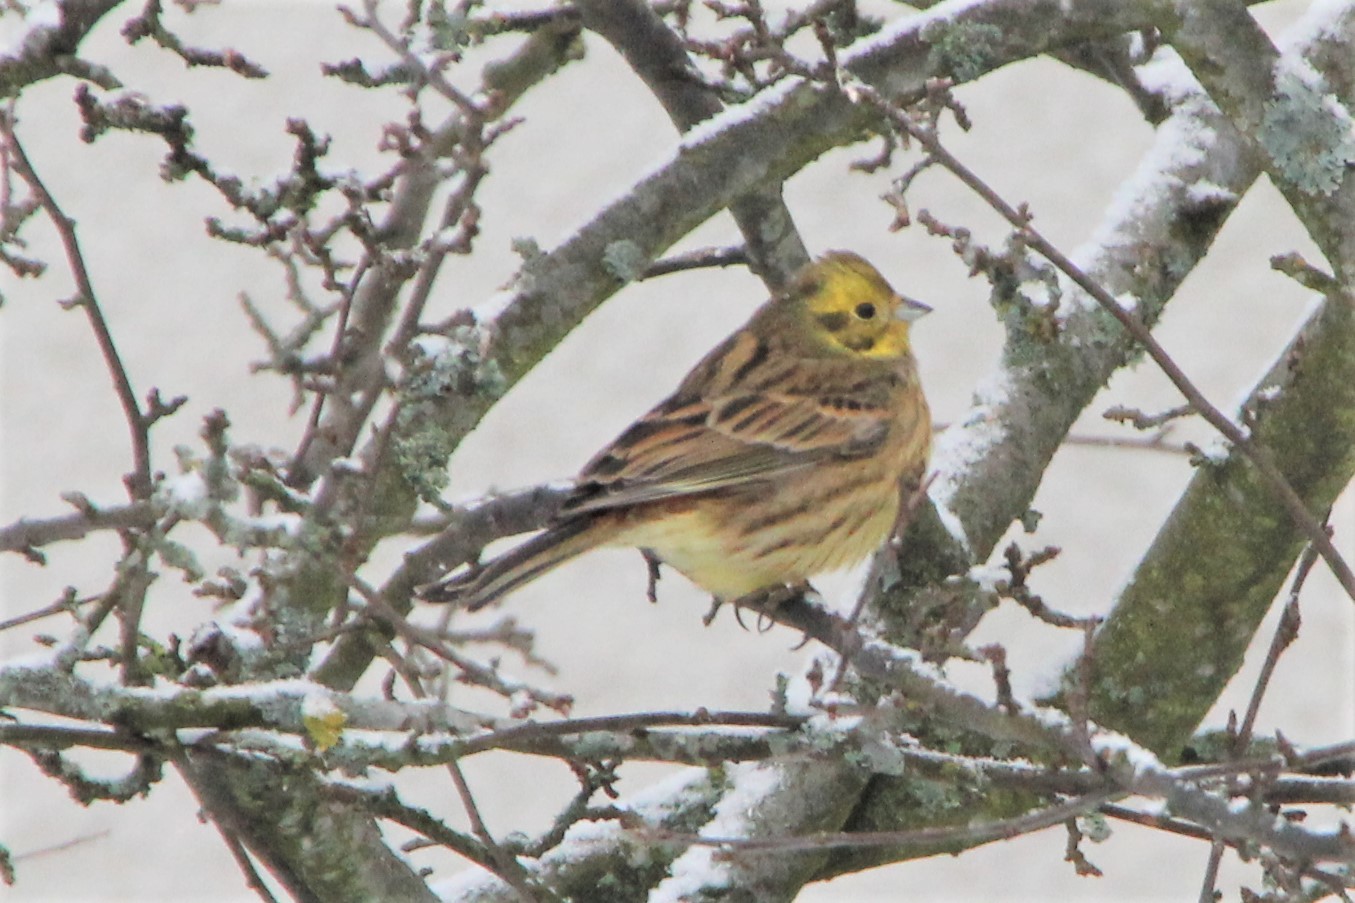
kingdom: Animalia
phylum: Chordata
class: Aves
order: Passeriformes
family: Emberizidae
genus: Emberiza
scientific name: Emberiza citrinella
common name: Yellowhammer
